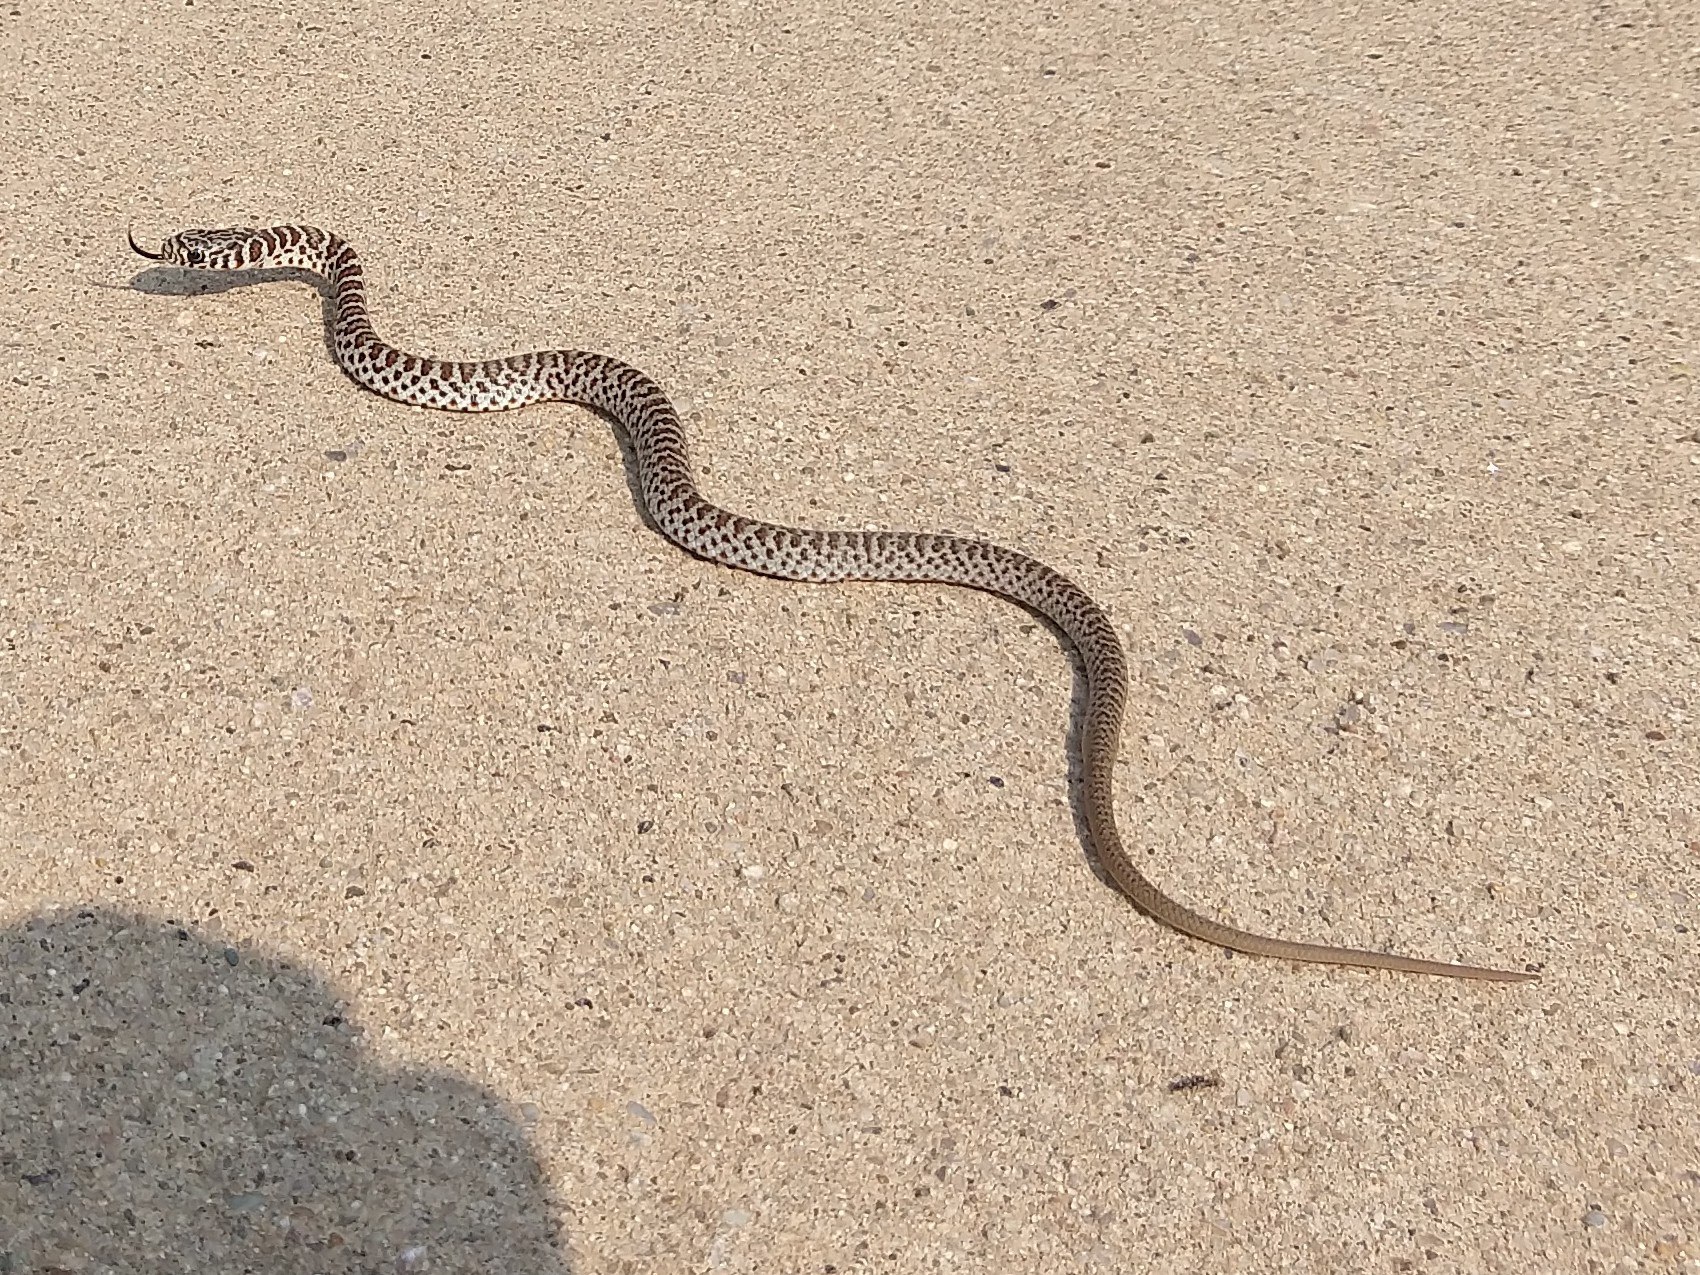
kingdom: Animalia
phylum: Chordata
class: Squamata
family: Colubridae
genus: Coluber
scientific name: Coluber constrictor
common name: Eastern racer
